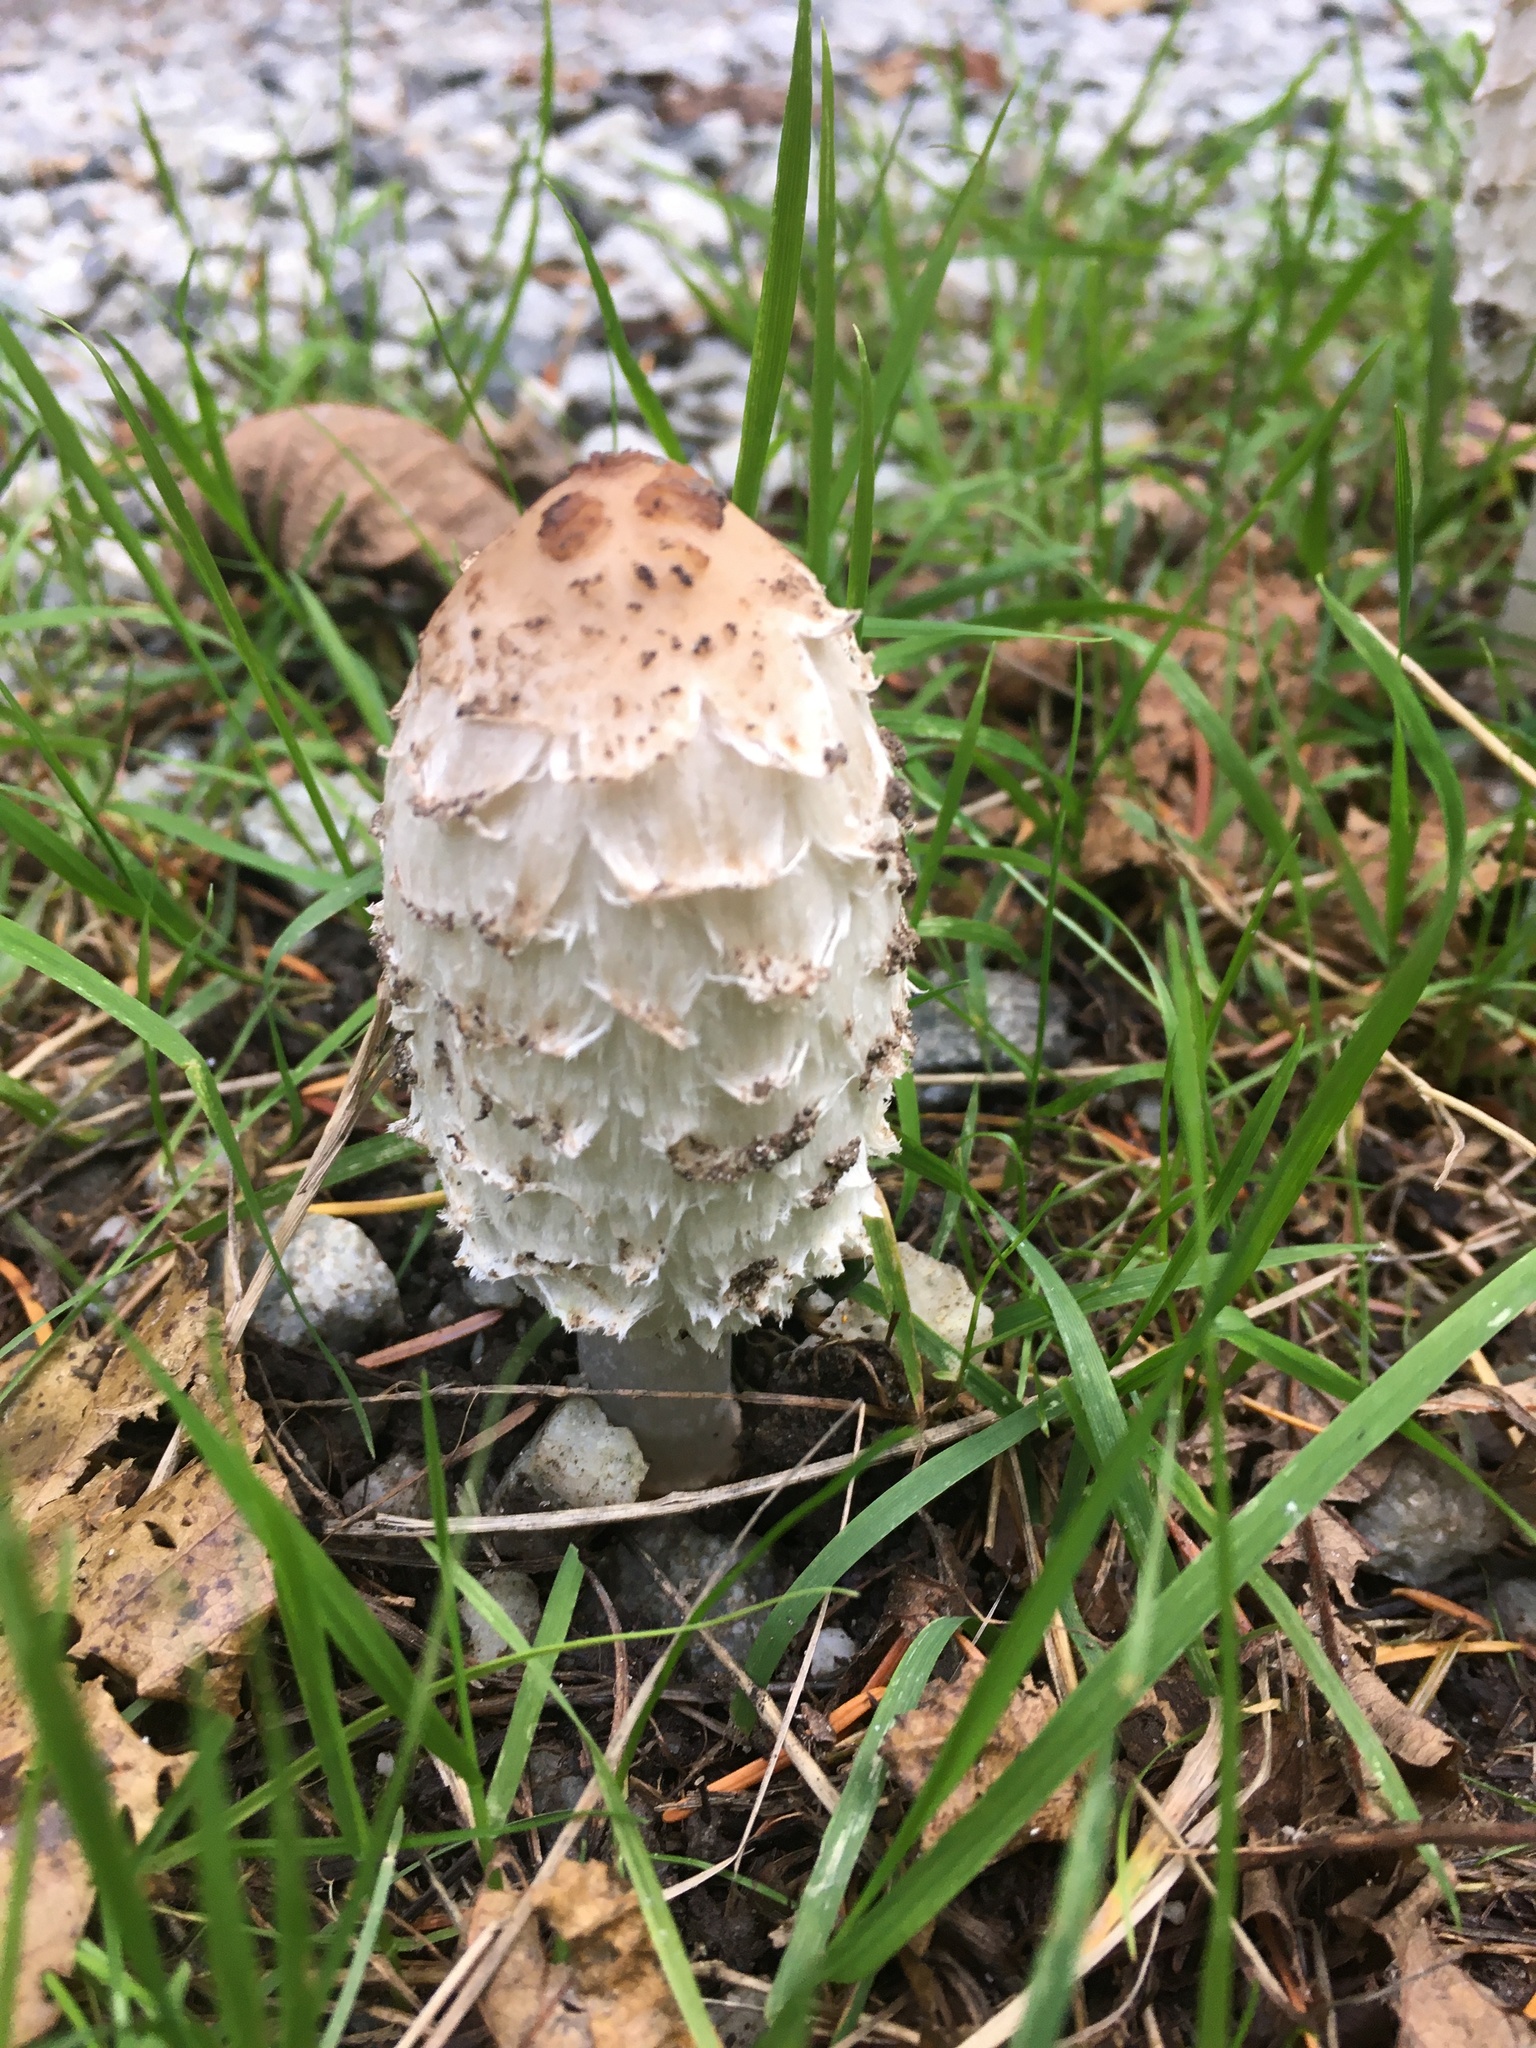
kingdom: Fungi
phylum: Basidiomycota
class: Agaricomycetes
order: Agaricales
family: Agaricaceae
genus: Coprinus
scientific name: Coprinus comatus
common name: Lawyer's wig
